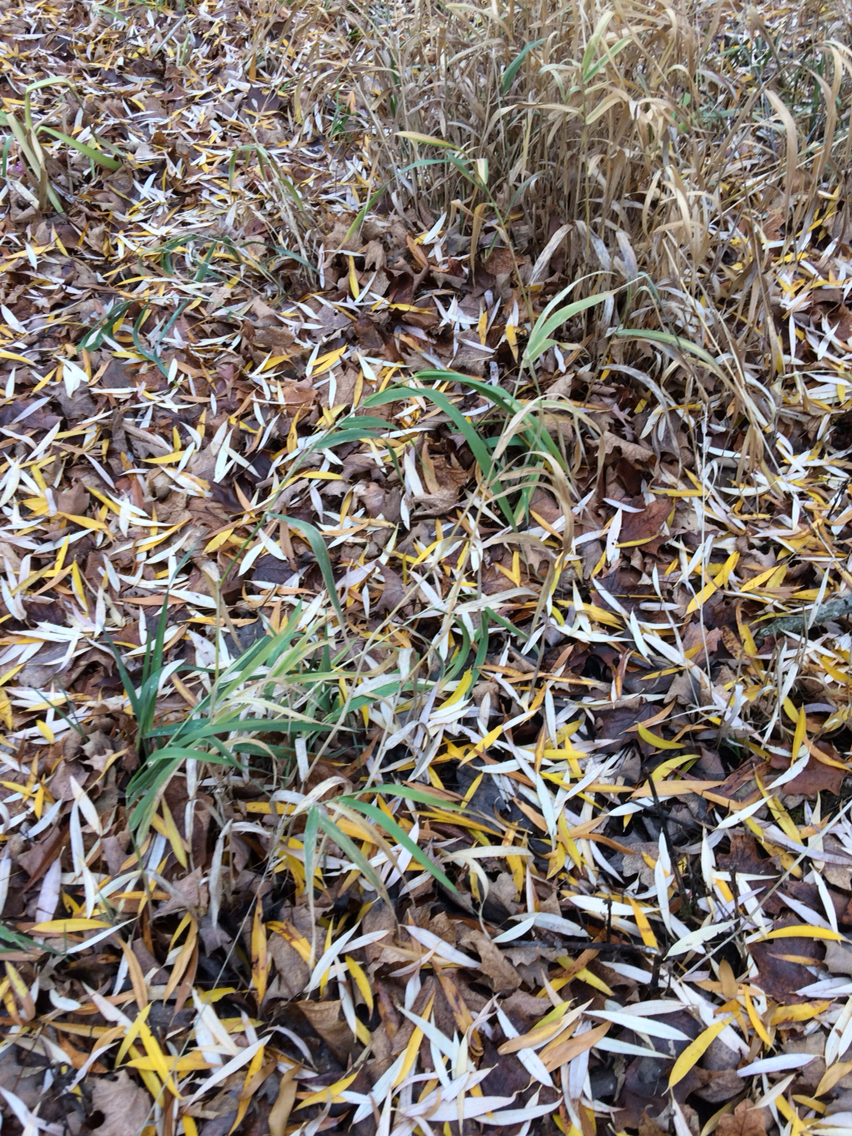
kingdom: Plantae
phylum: Tracheophyta
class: Liliopsida
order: Poales
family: Poaceae
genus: Phalaris
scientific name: Phalaris arundinacea
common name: Reed canary-grass
